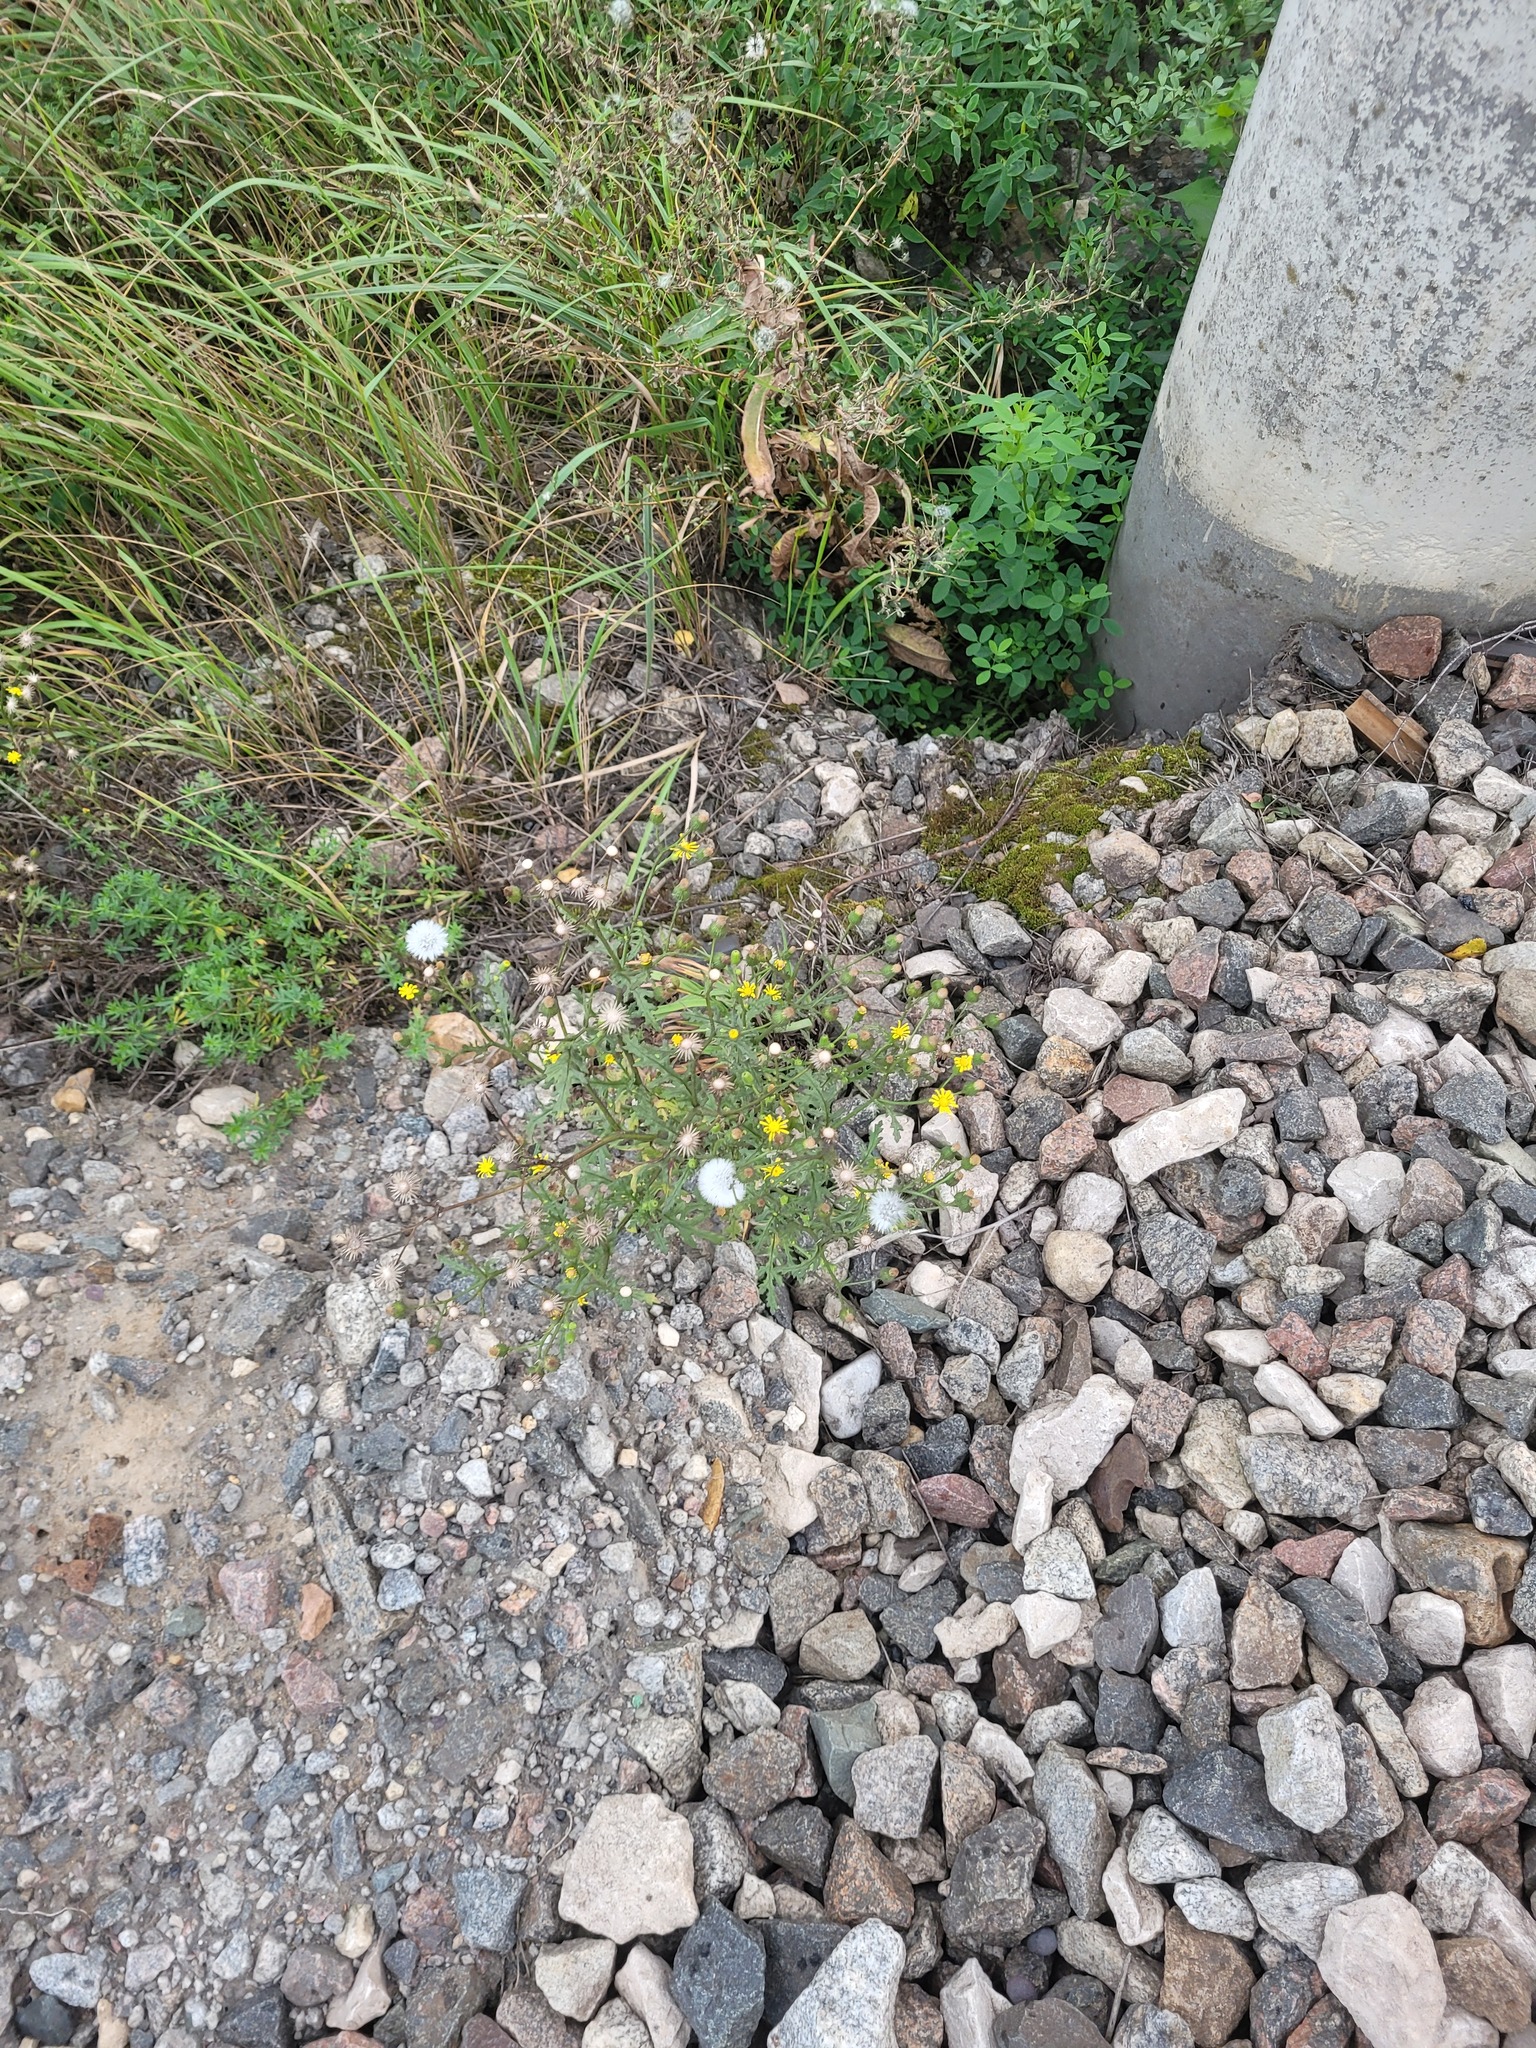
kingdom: Plantae
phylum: Tracheophyta
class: Magnoliopsida
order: Asterales
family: Asteraceae
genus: Senecio
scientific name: Senecio viscosus
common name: Sticky groundsel
